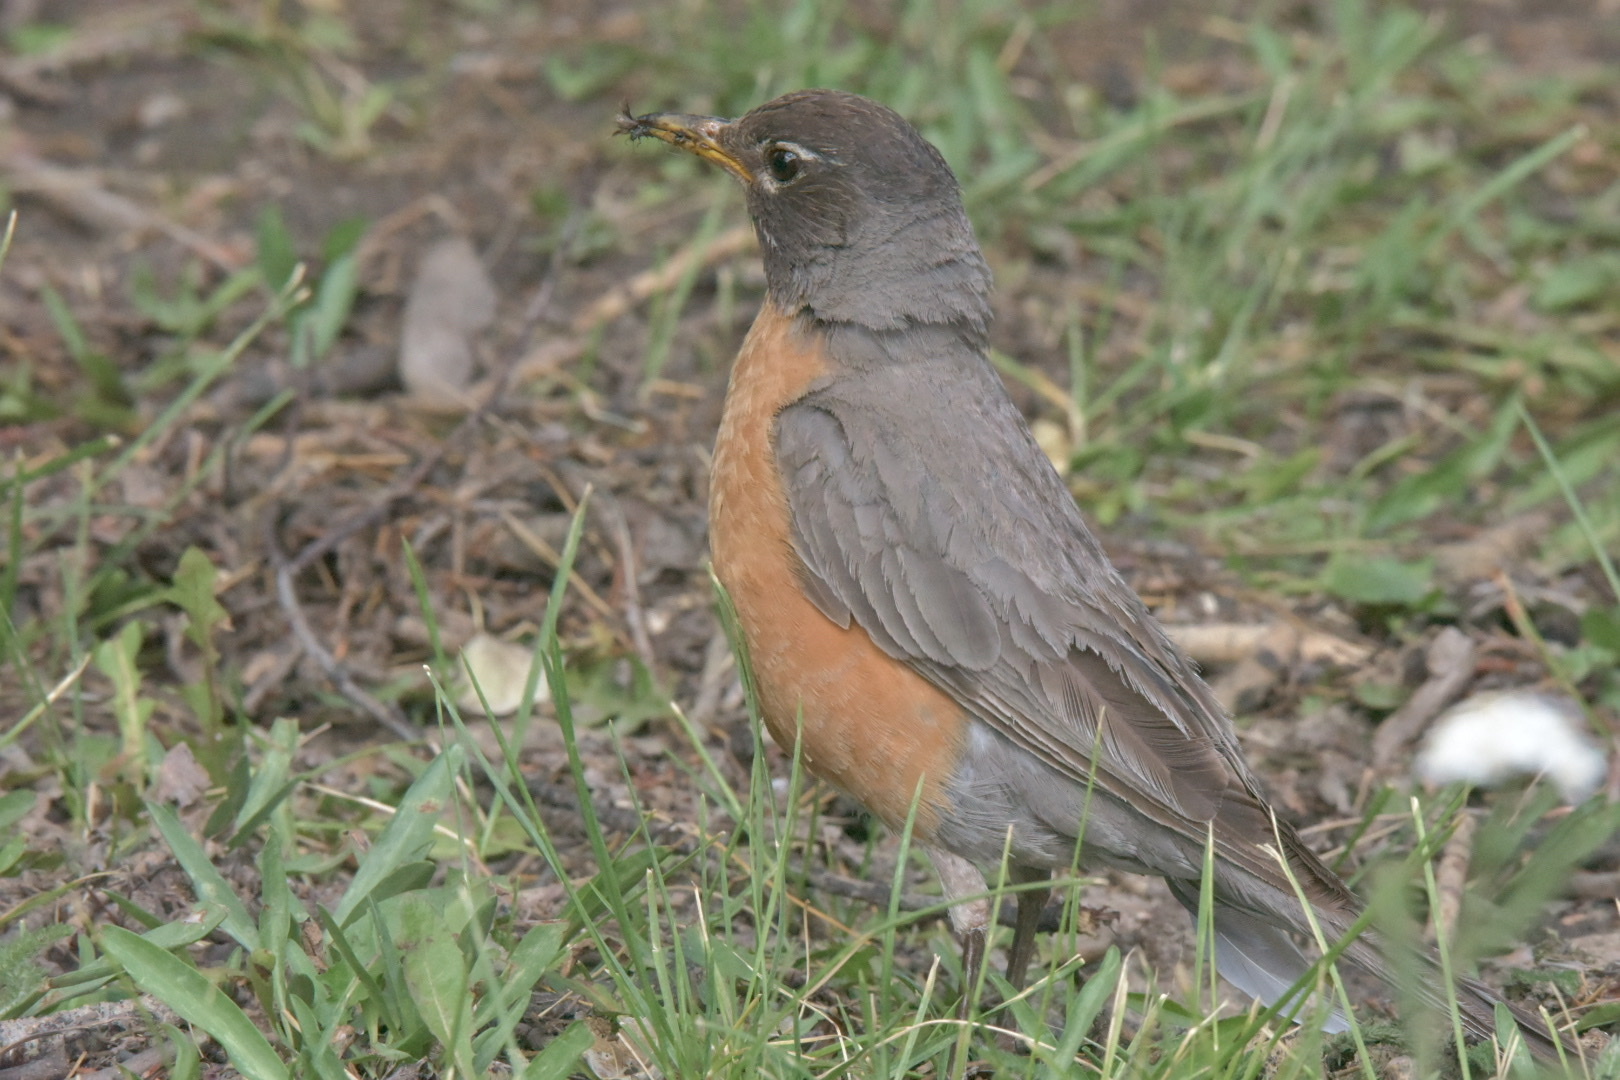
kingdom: Animalia
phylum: Chordata
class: Aves
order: Passeriformes
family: Turdidae
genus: Turdus
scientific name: Turdus migratorius
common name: American robin
